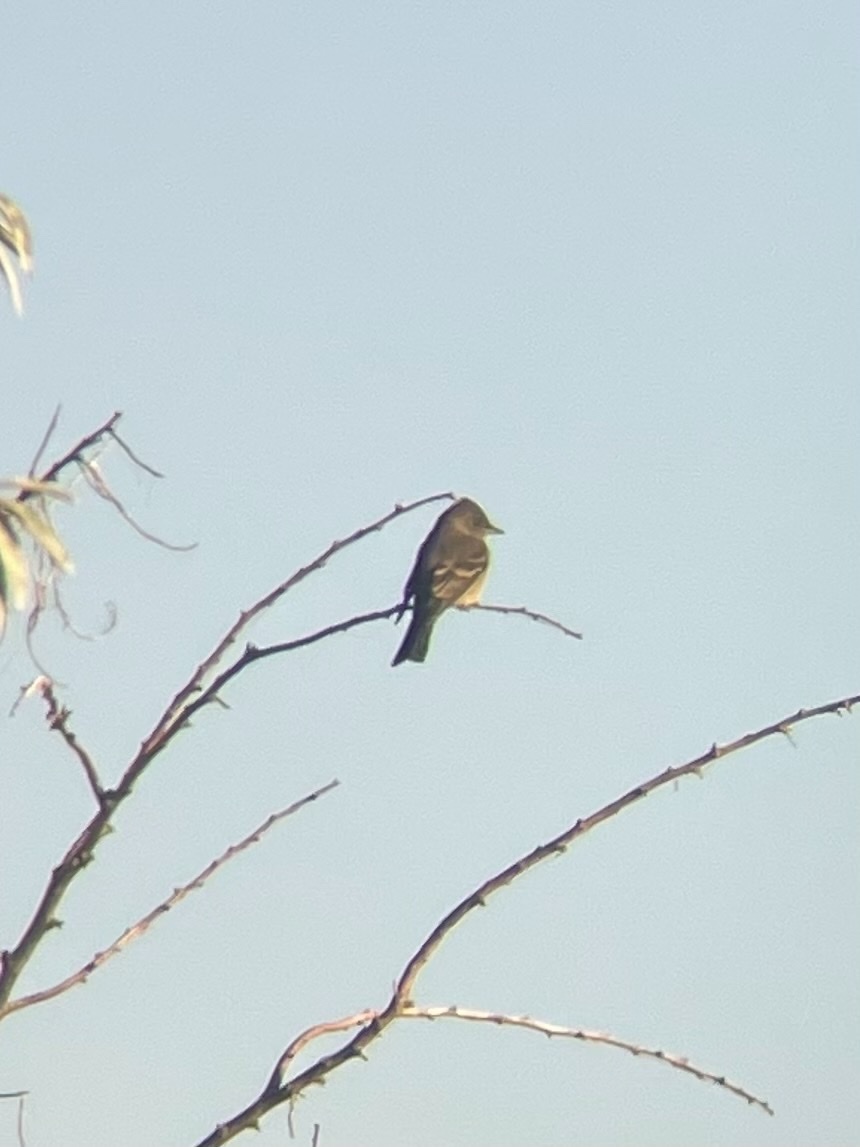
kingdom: Animalia
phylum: Chordata
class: Aves
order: Passeriformes
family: Tyrannidae
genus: Contopus
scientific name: Contopus sordidulus
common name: Western wood-pewee
